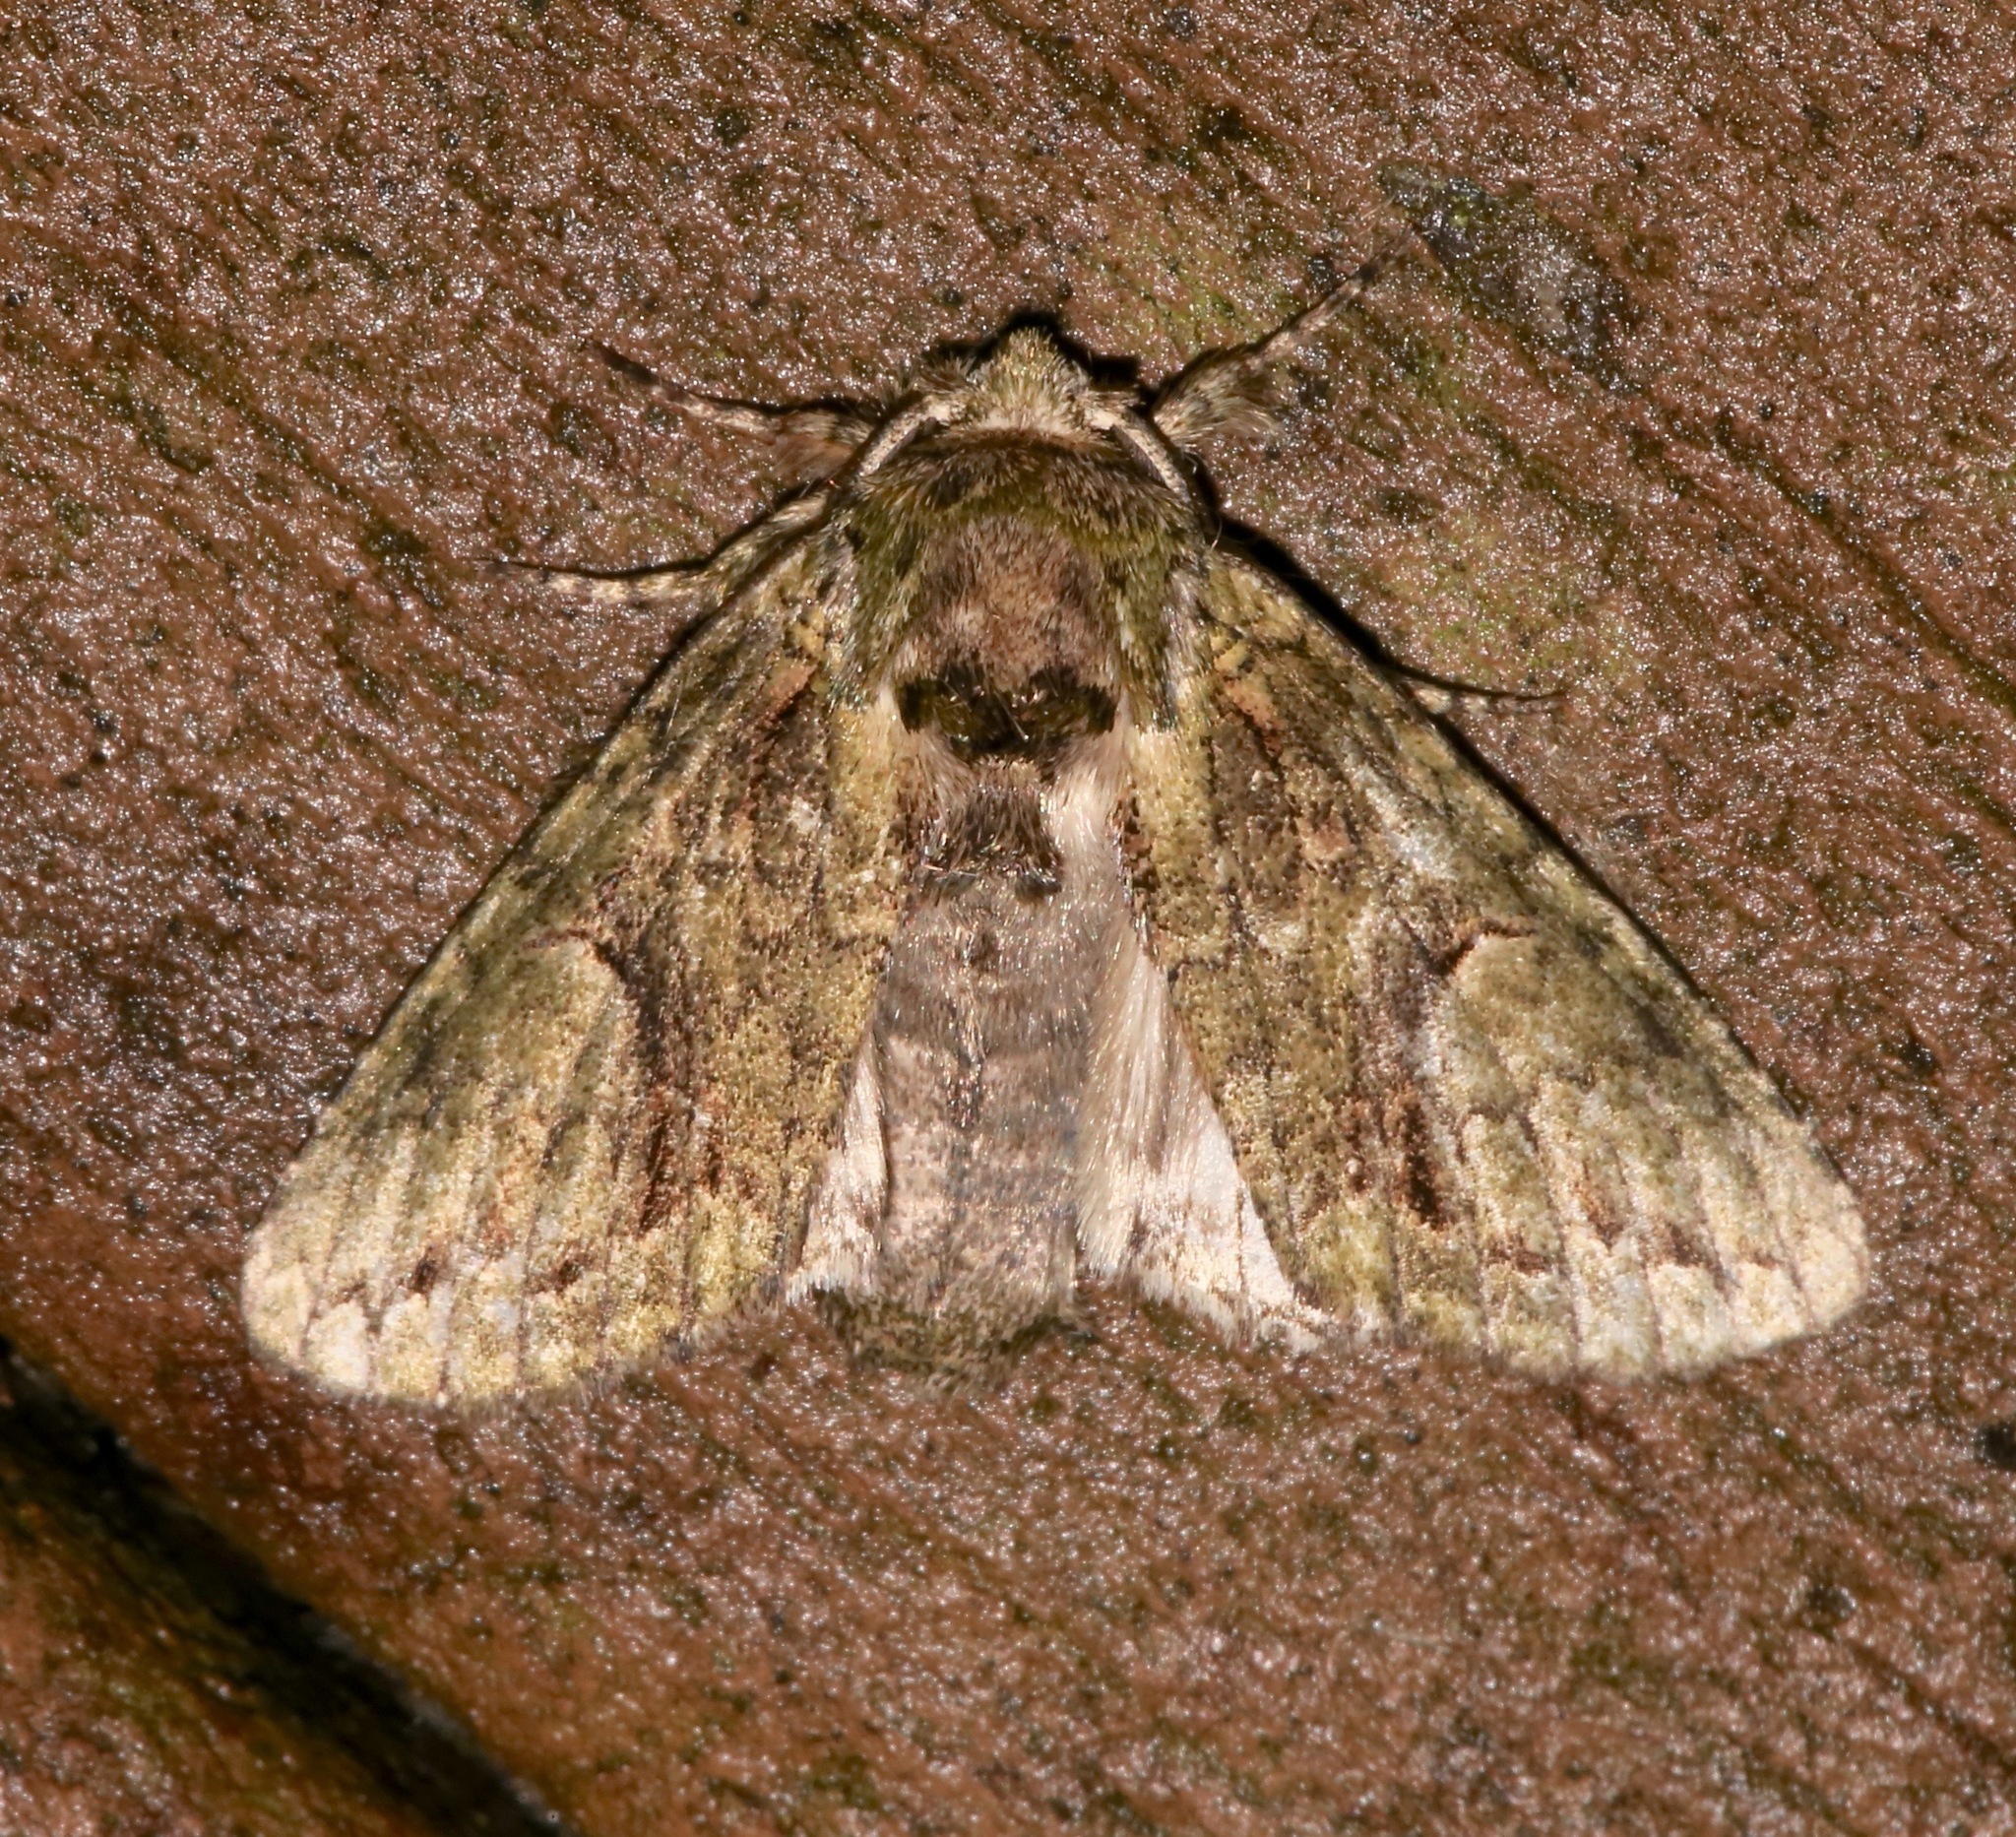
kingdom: Animalia
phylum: Arthropoda
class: Insecta
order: Lepidoptera
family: Notodontidae
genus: Heterocampa
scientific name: Heterocampa umbrata
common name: White-blotched heterocampa
